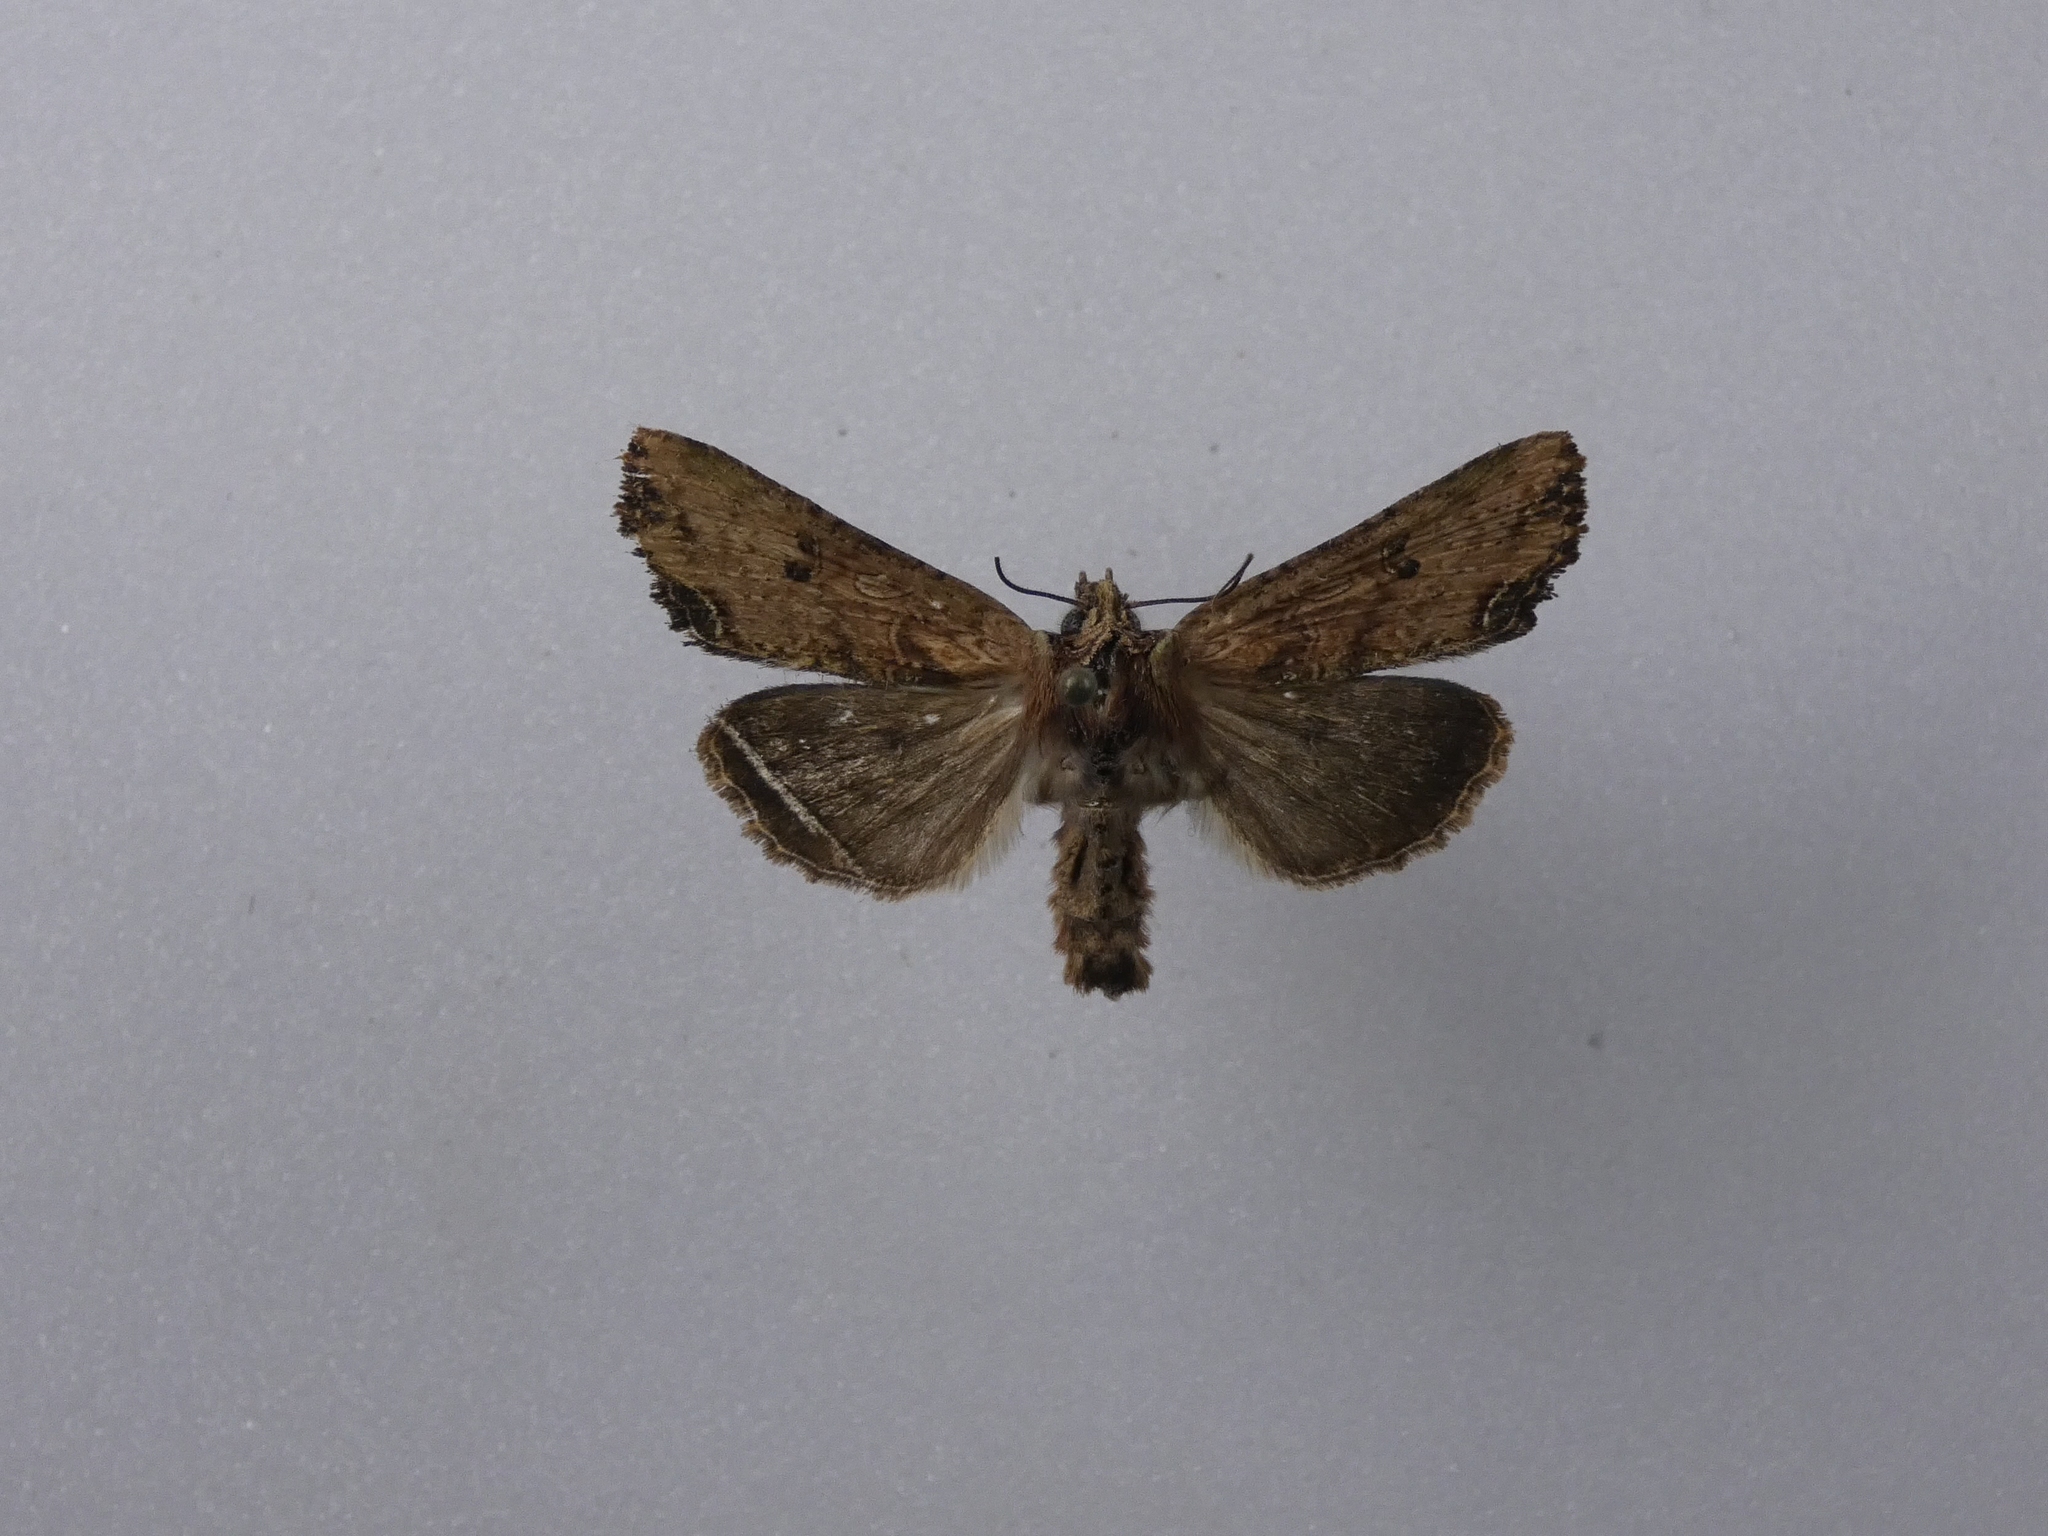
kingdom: Animalia
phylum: Arthropoda
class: Insecta
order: Lepidoptera
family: Noctuidae
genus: Meterana
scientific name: Meterana coeleno
